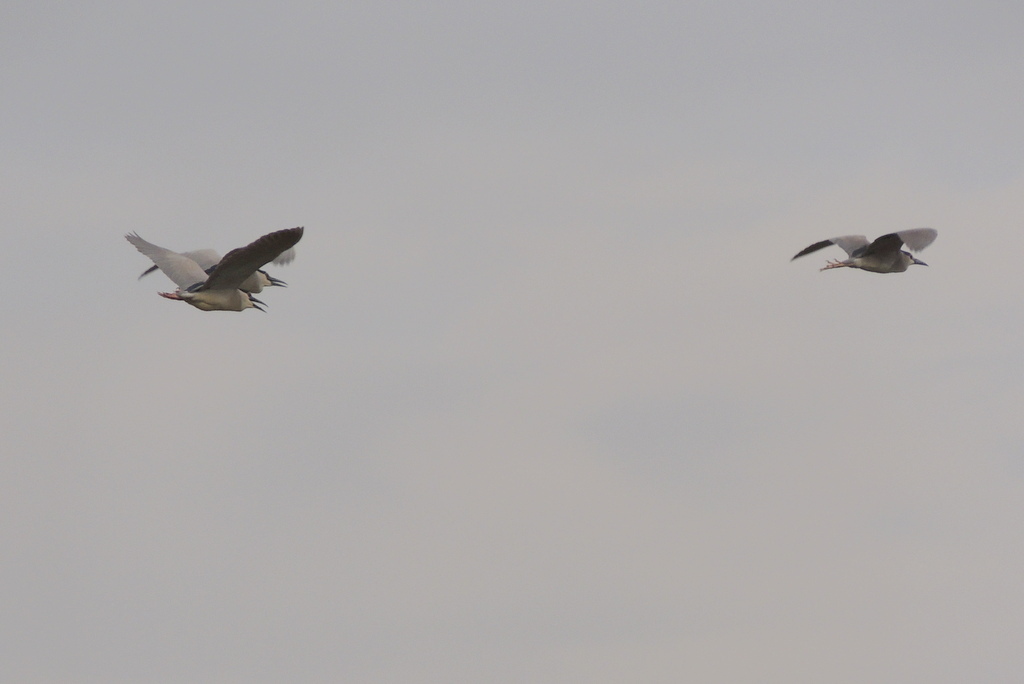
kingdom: Animalia
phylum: Chordata
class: Aves
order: Pelecaniformes
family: Ardeidae
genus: Nycticorax
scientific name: Nycticorax nycticorax
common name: Black-crowned night heron
